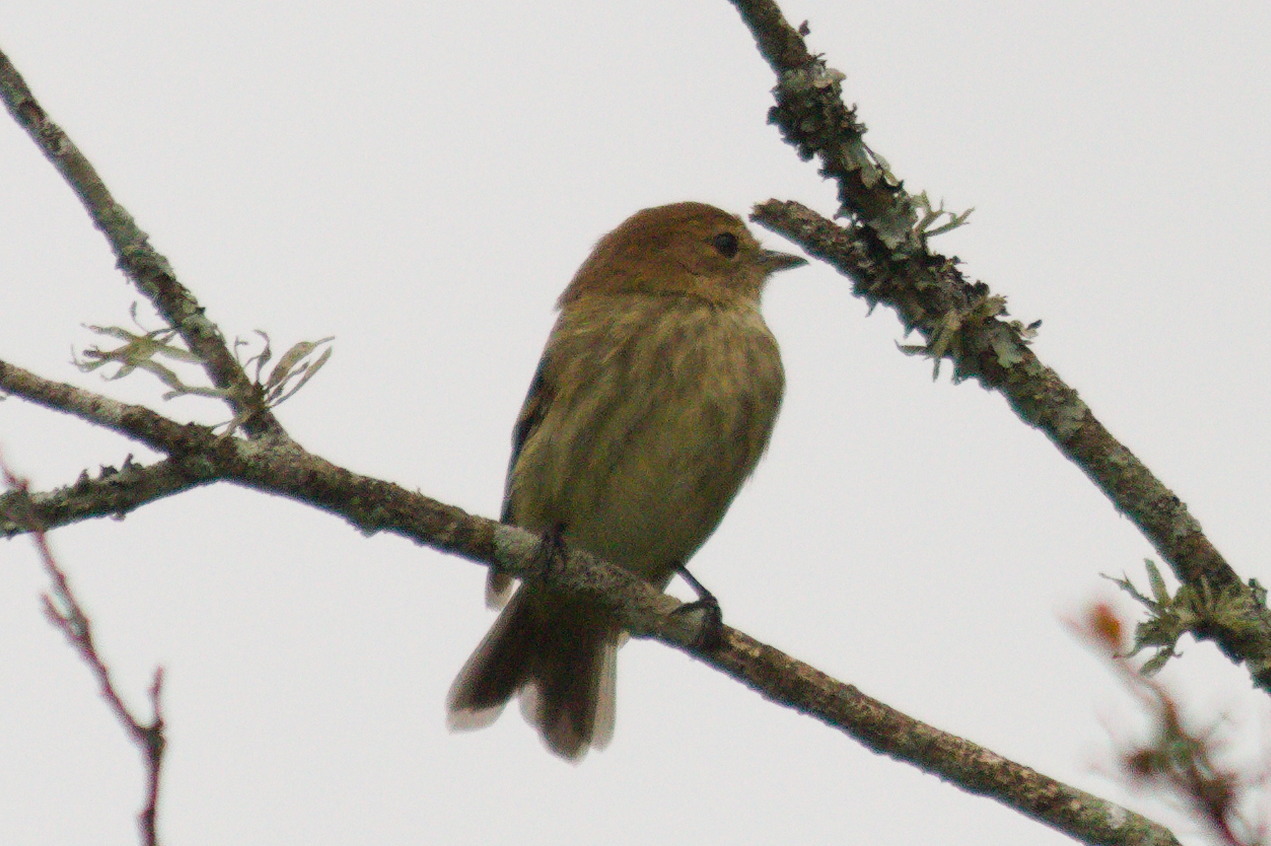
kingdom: Animalia
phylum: Chordata
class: Aves
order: Passeriformes
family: Tyrannidae
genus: Myiophobus
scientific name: Myiophobus fasciatus
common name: Bran-colored flycatcher
